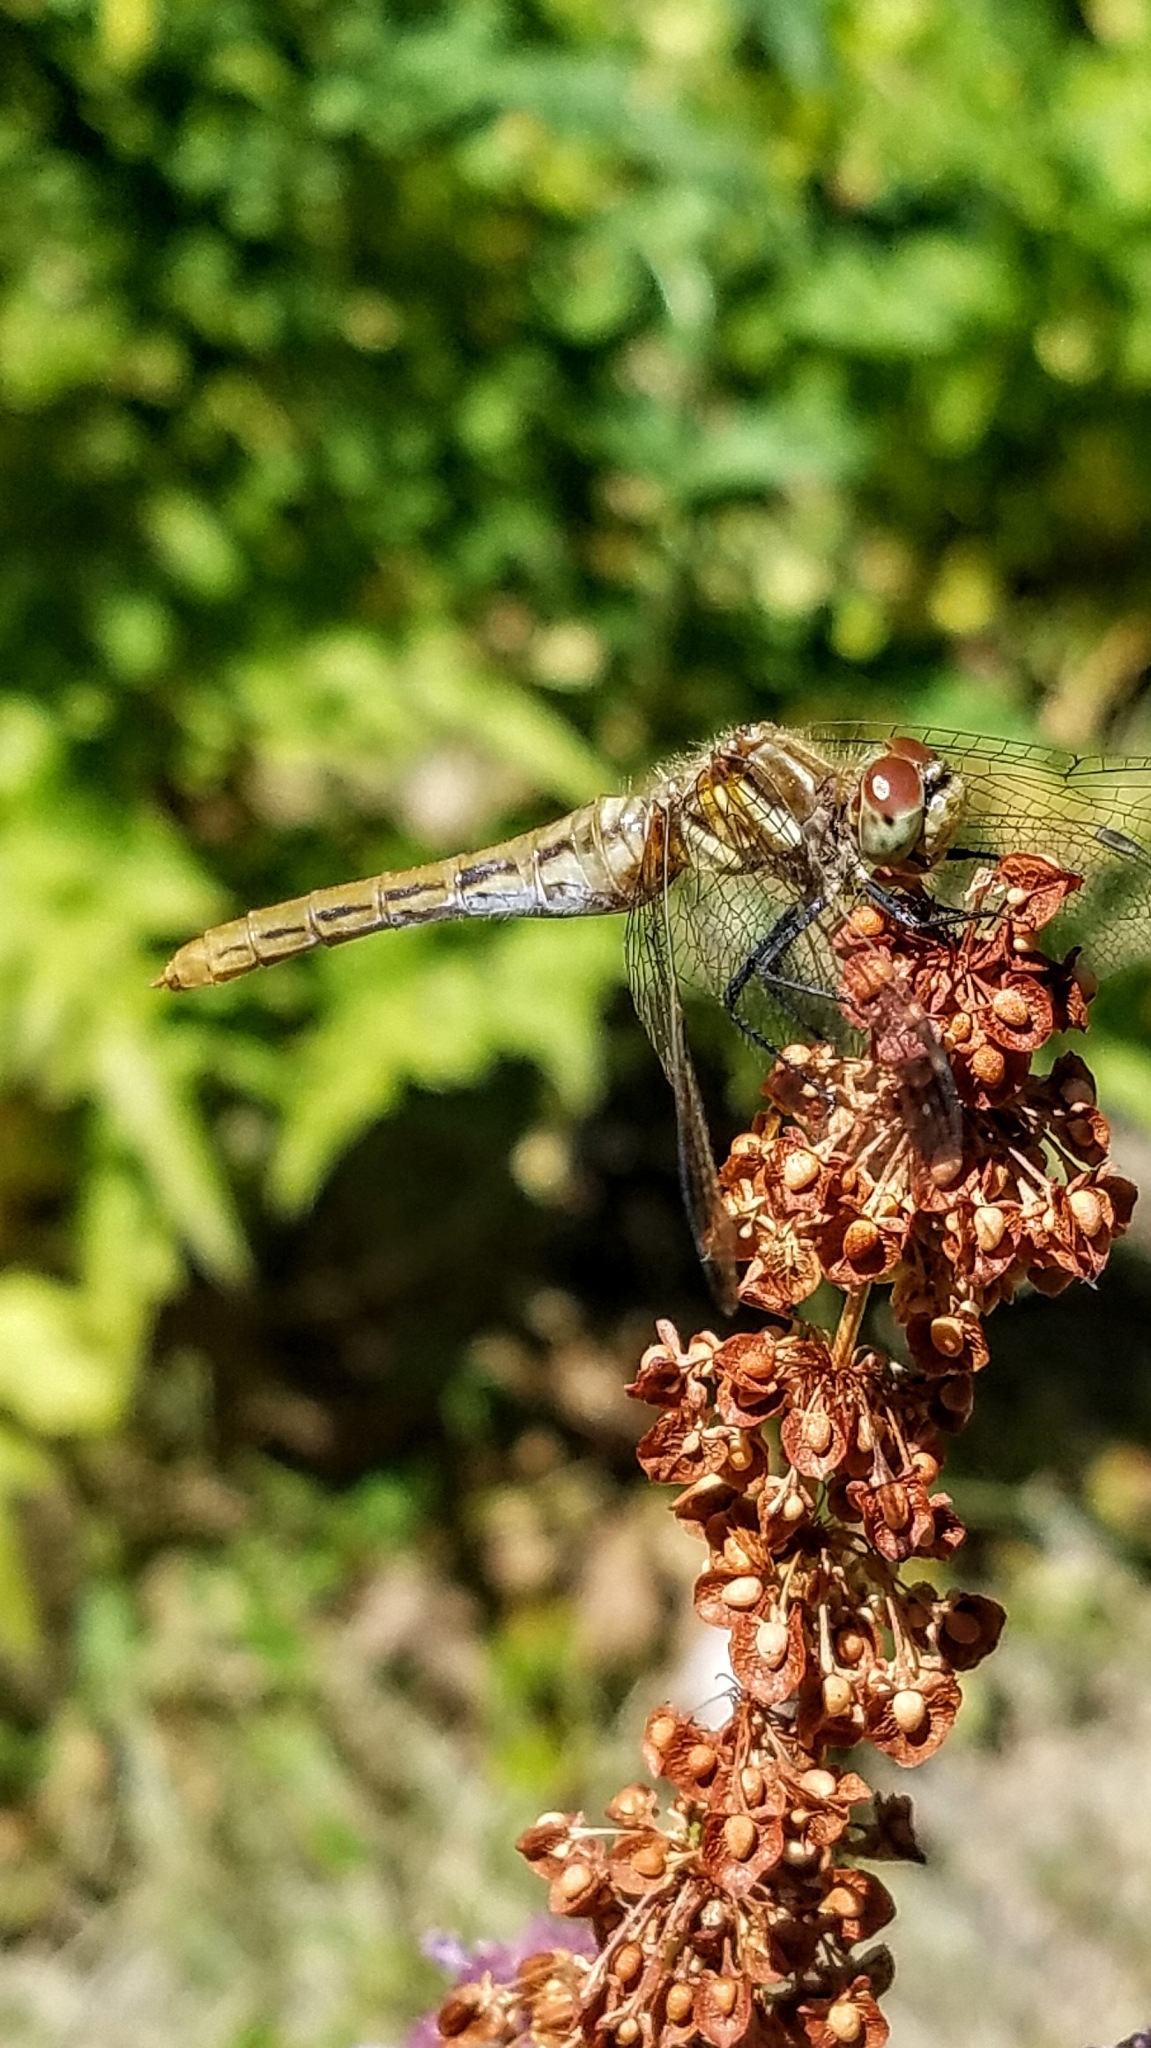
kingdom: Animalia
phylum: Arthropoda
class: Insecta
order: Odonata
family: Libellulidae
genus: Sympetrum
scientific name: Sympetrum pallipes
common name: Striped meadowhawk
